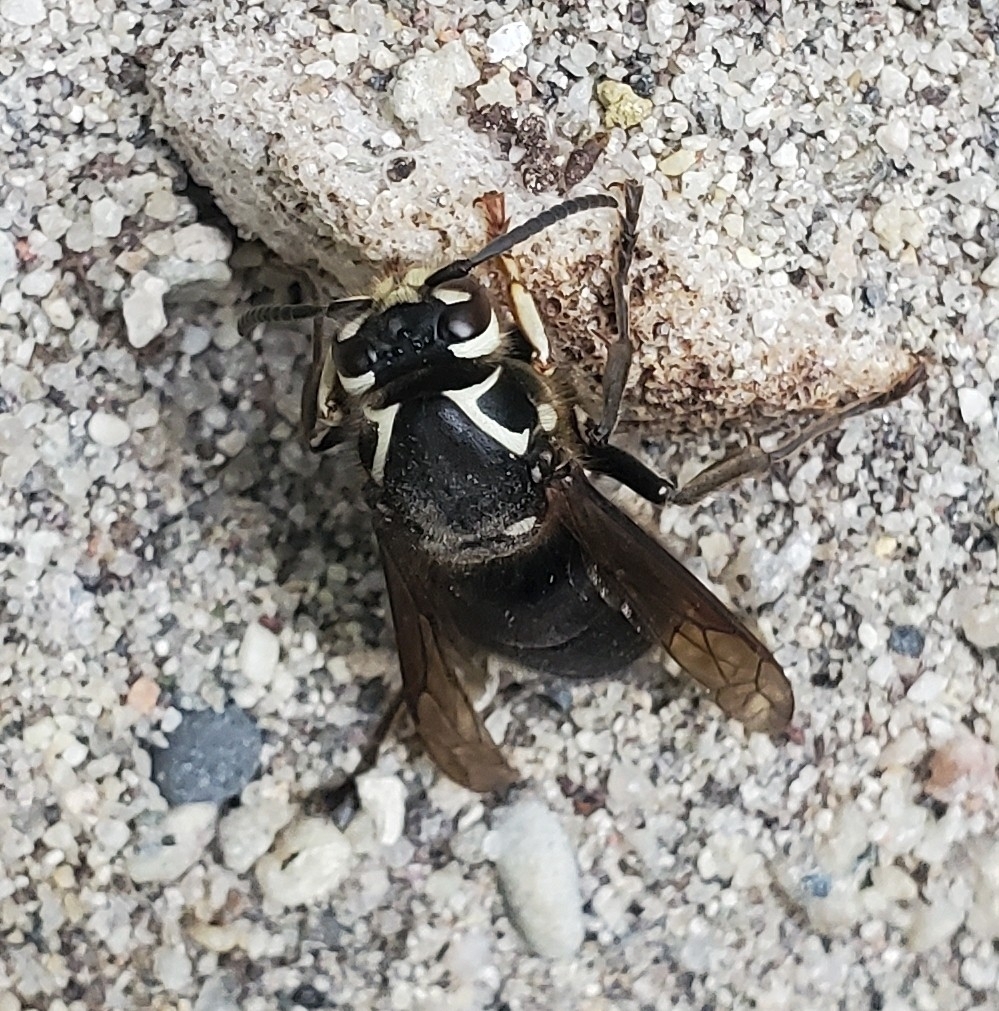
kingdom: Animalia
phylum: Arthropoda
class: Insecta
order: Hymenoptera
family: Vespidae
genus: Dolichovespula
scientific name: Dolichovespula maculata
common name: Bald-faced hornet
